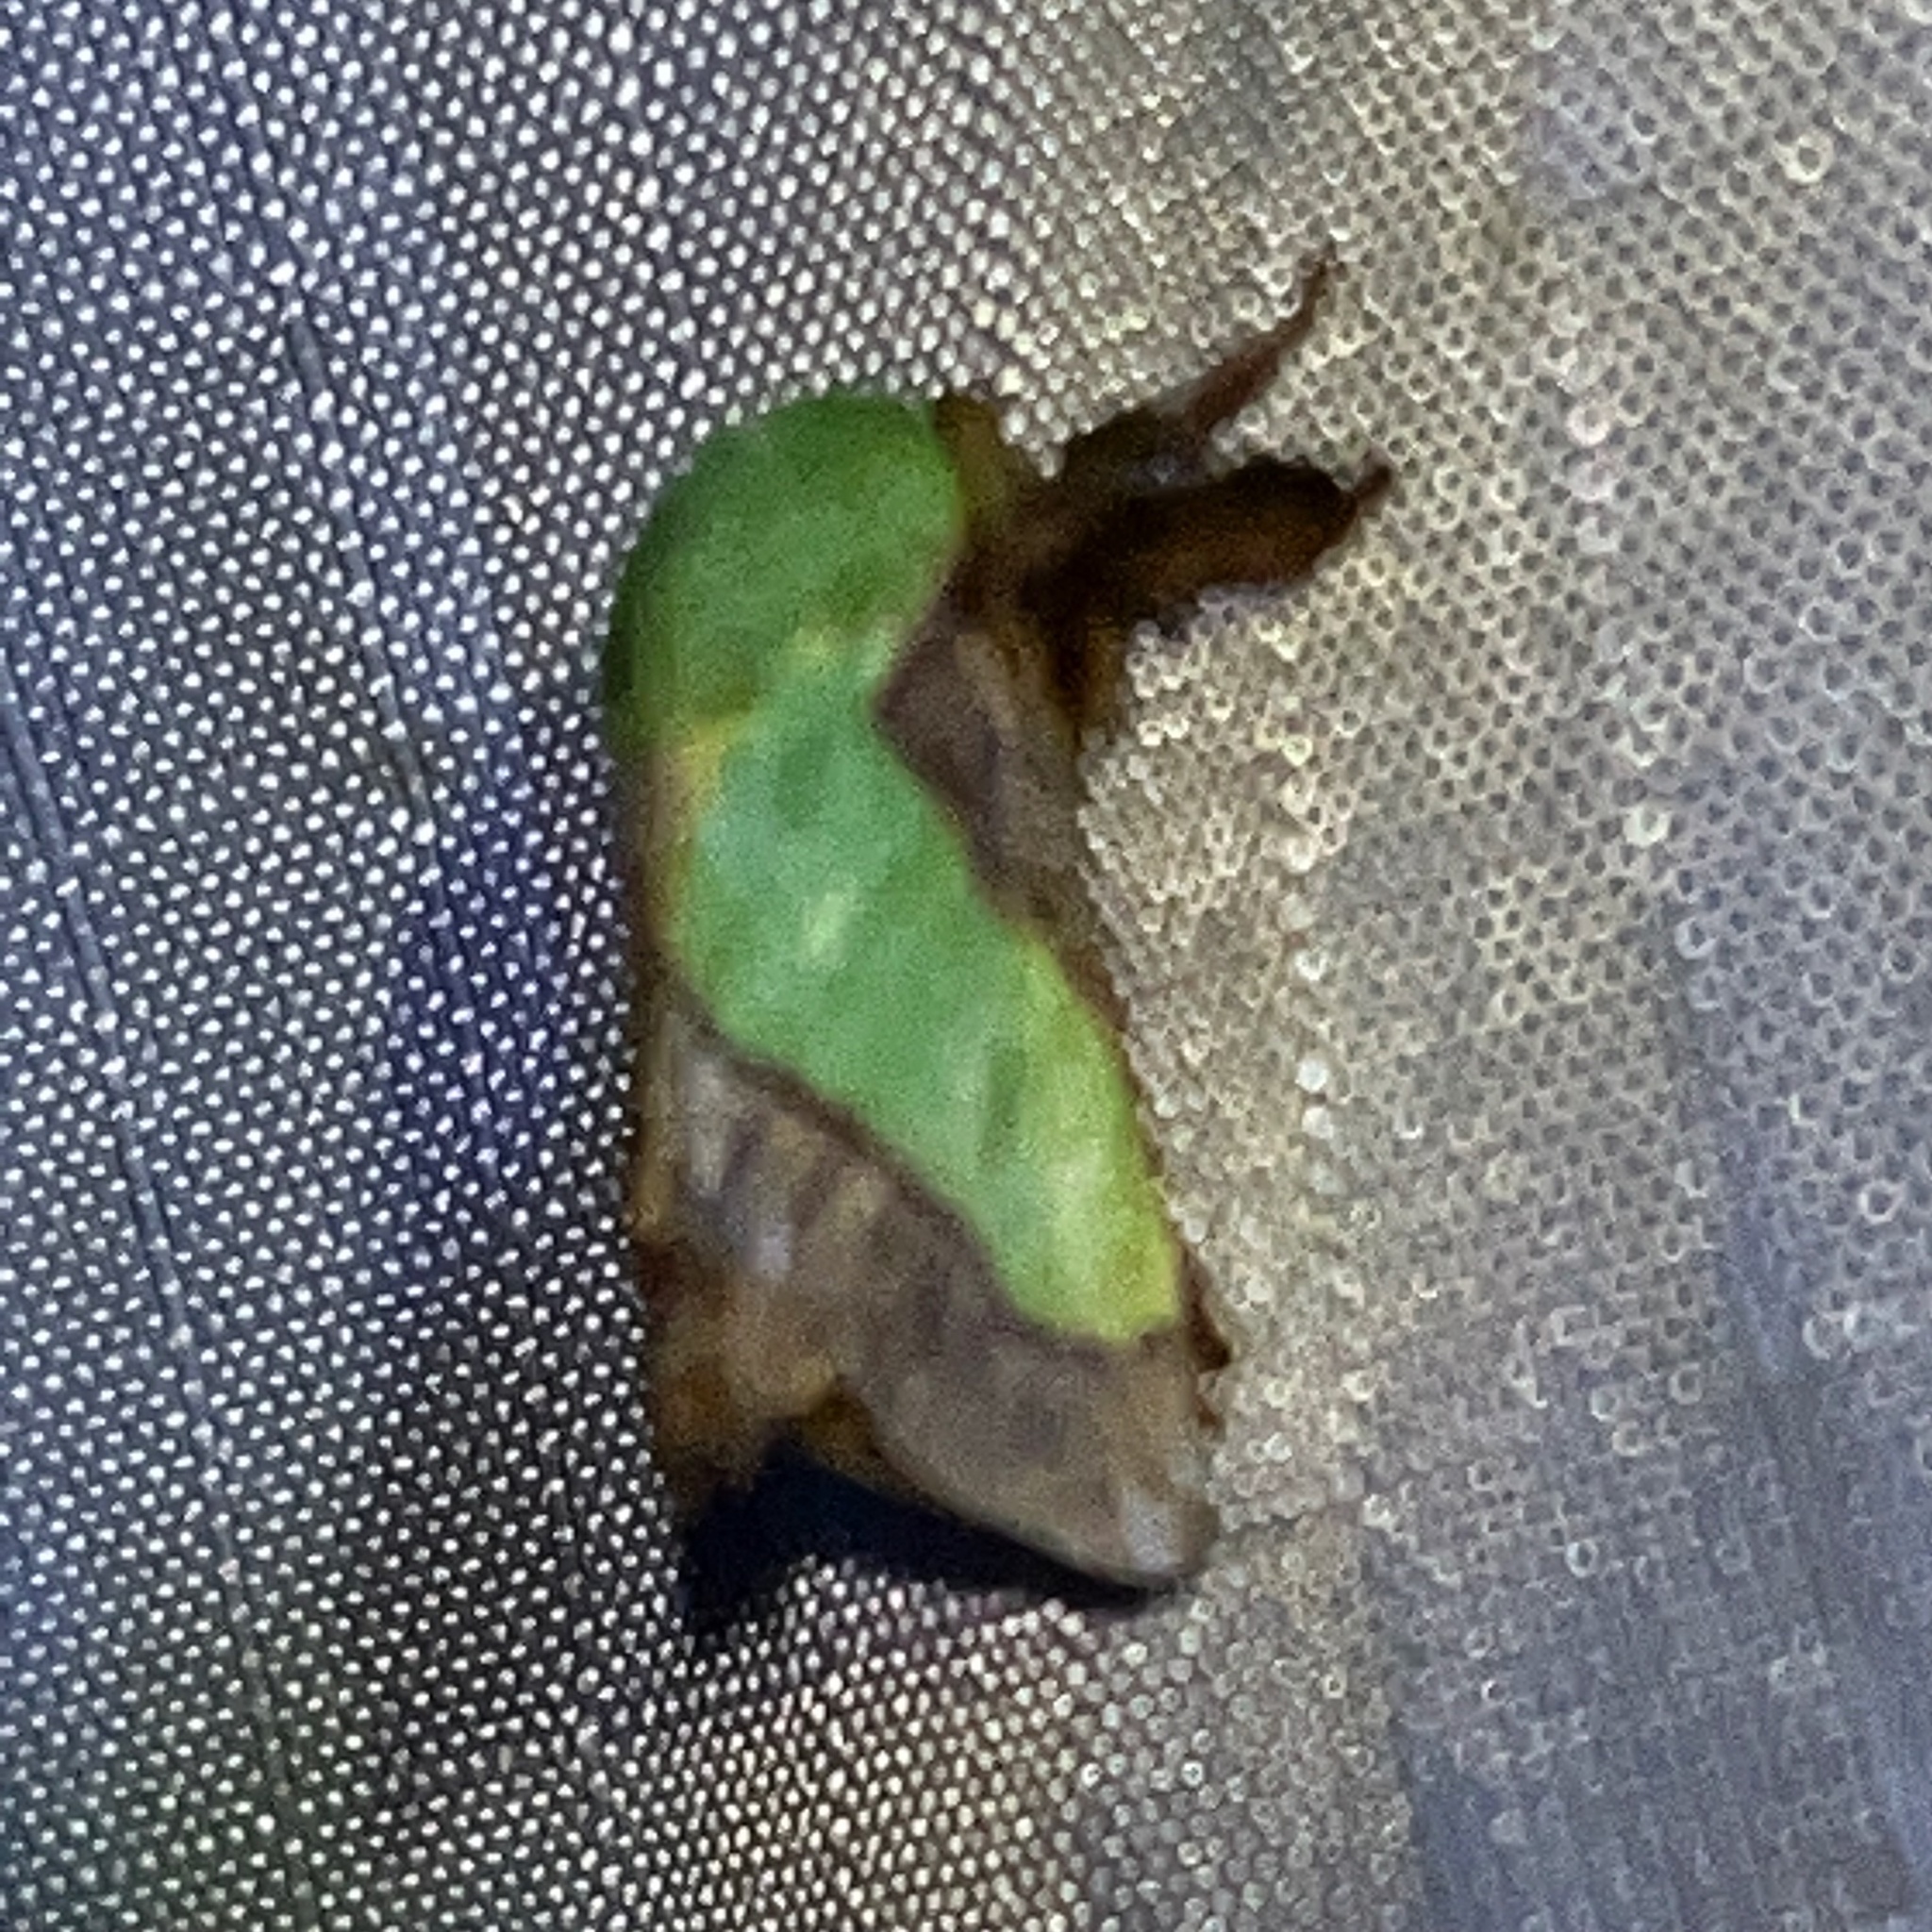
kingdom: Animalia
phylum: Arthropoda
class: Insecta
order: Lepidoptera
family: Limacodidae
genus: Parasa
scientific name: Parasa chloris
